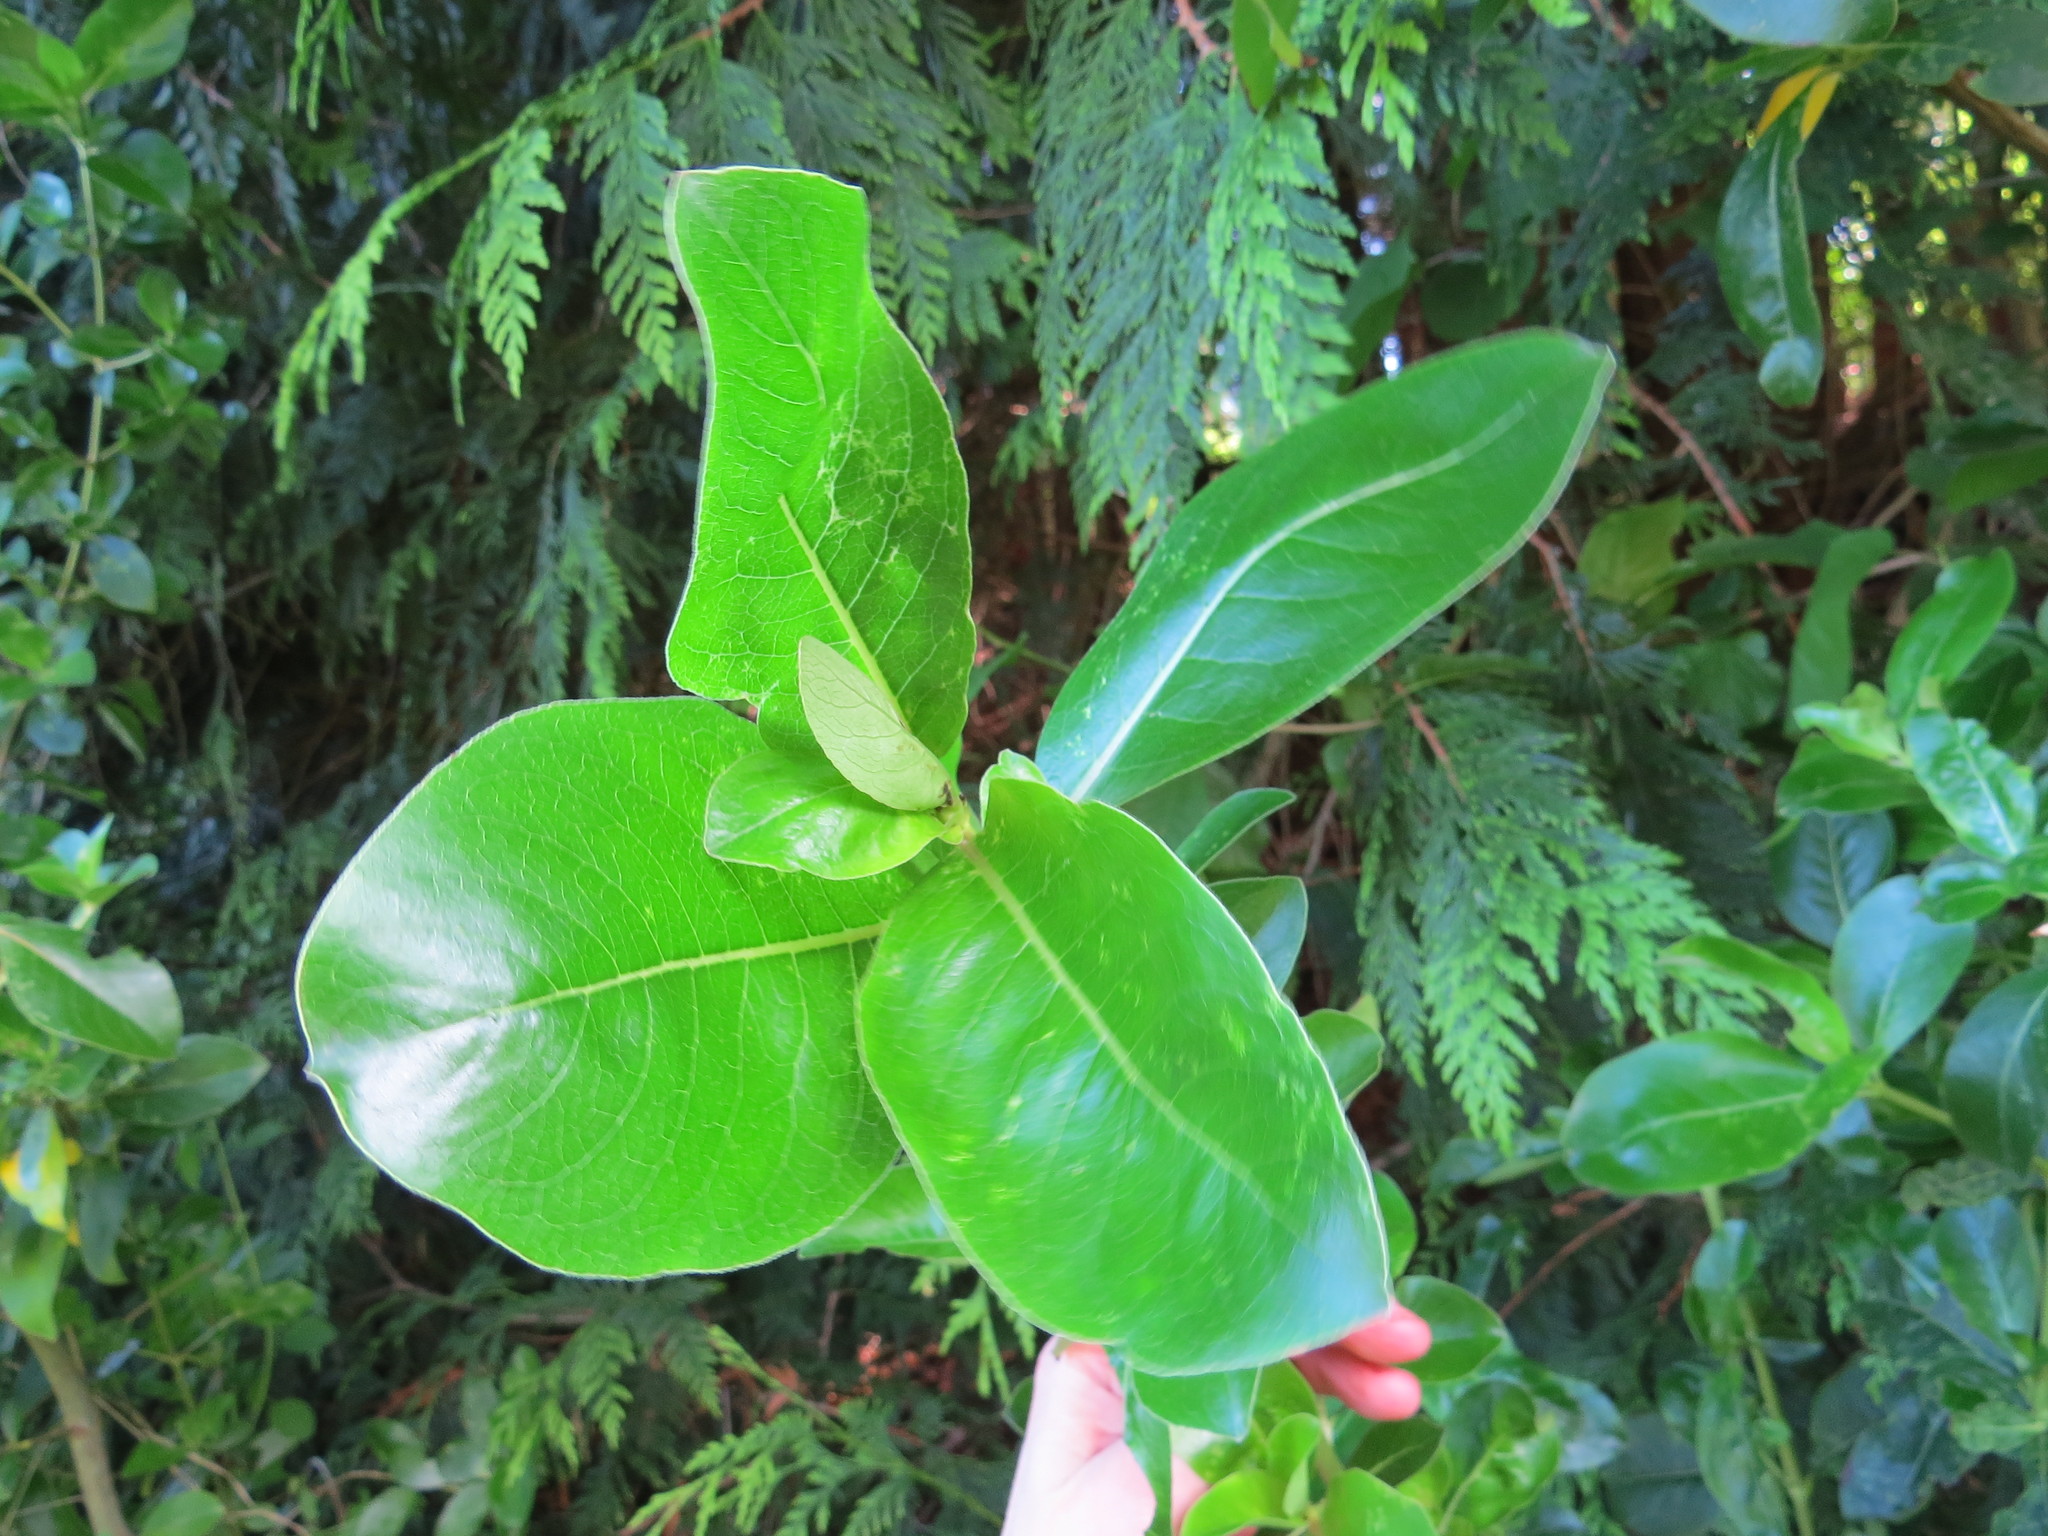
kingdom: Plantae
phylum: Tracheophyta
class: Magnoliopsida
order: Gentianales
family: Rubiaceae
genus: Coprosma
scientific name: Coprosma lucida
